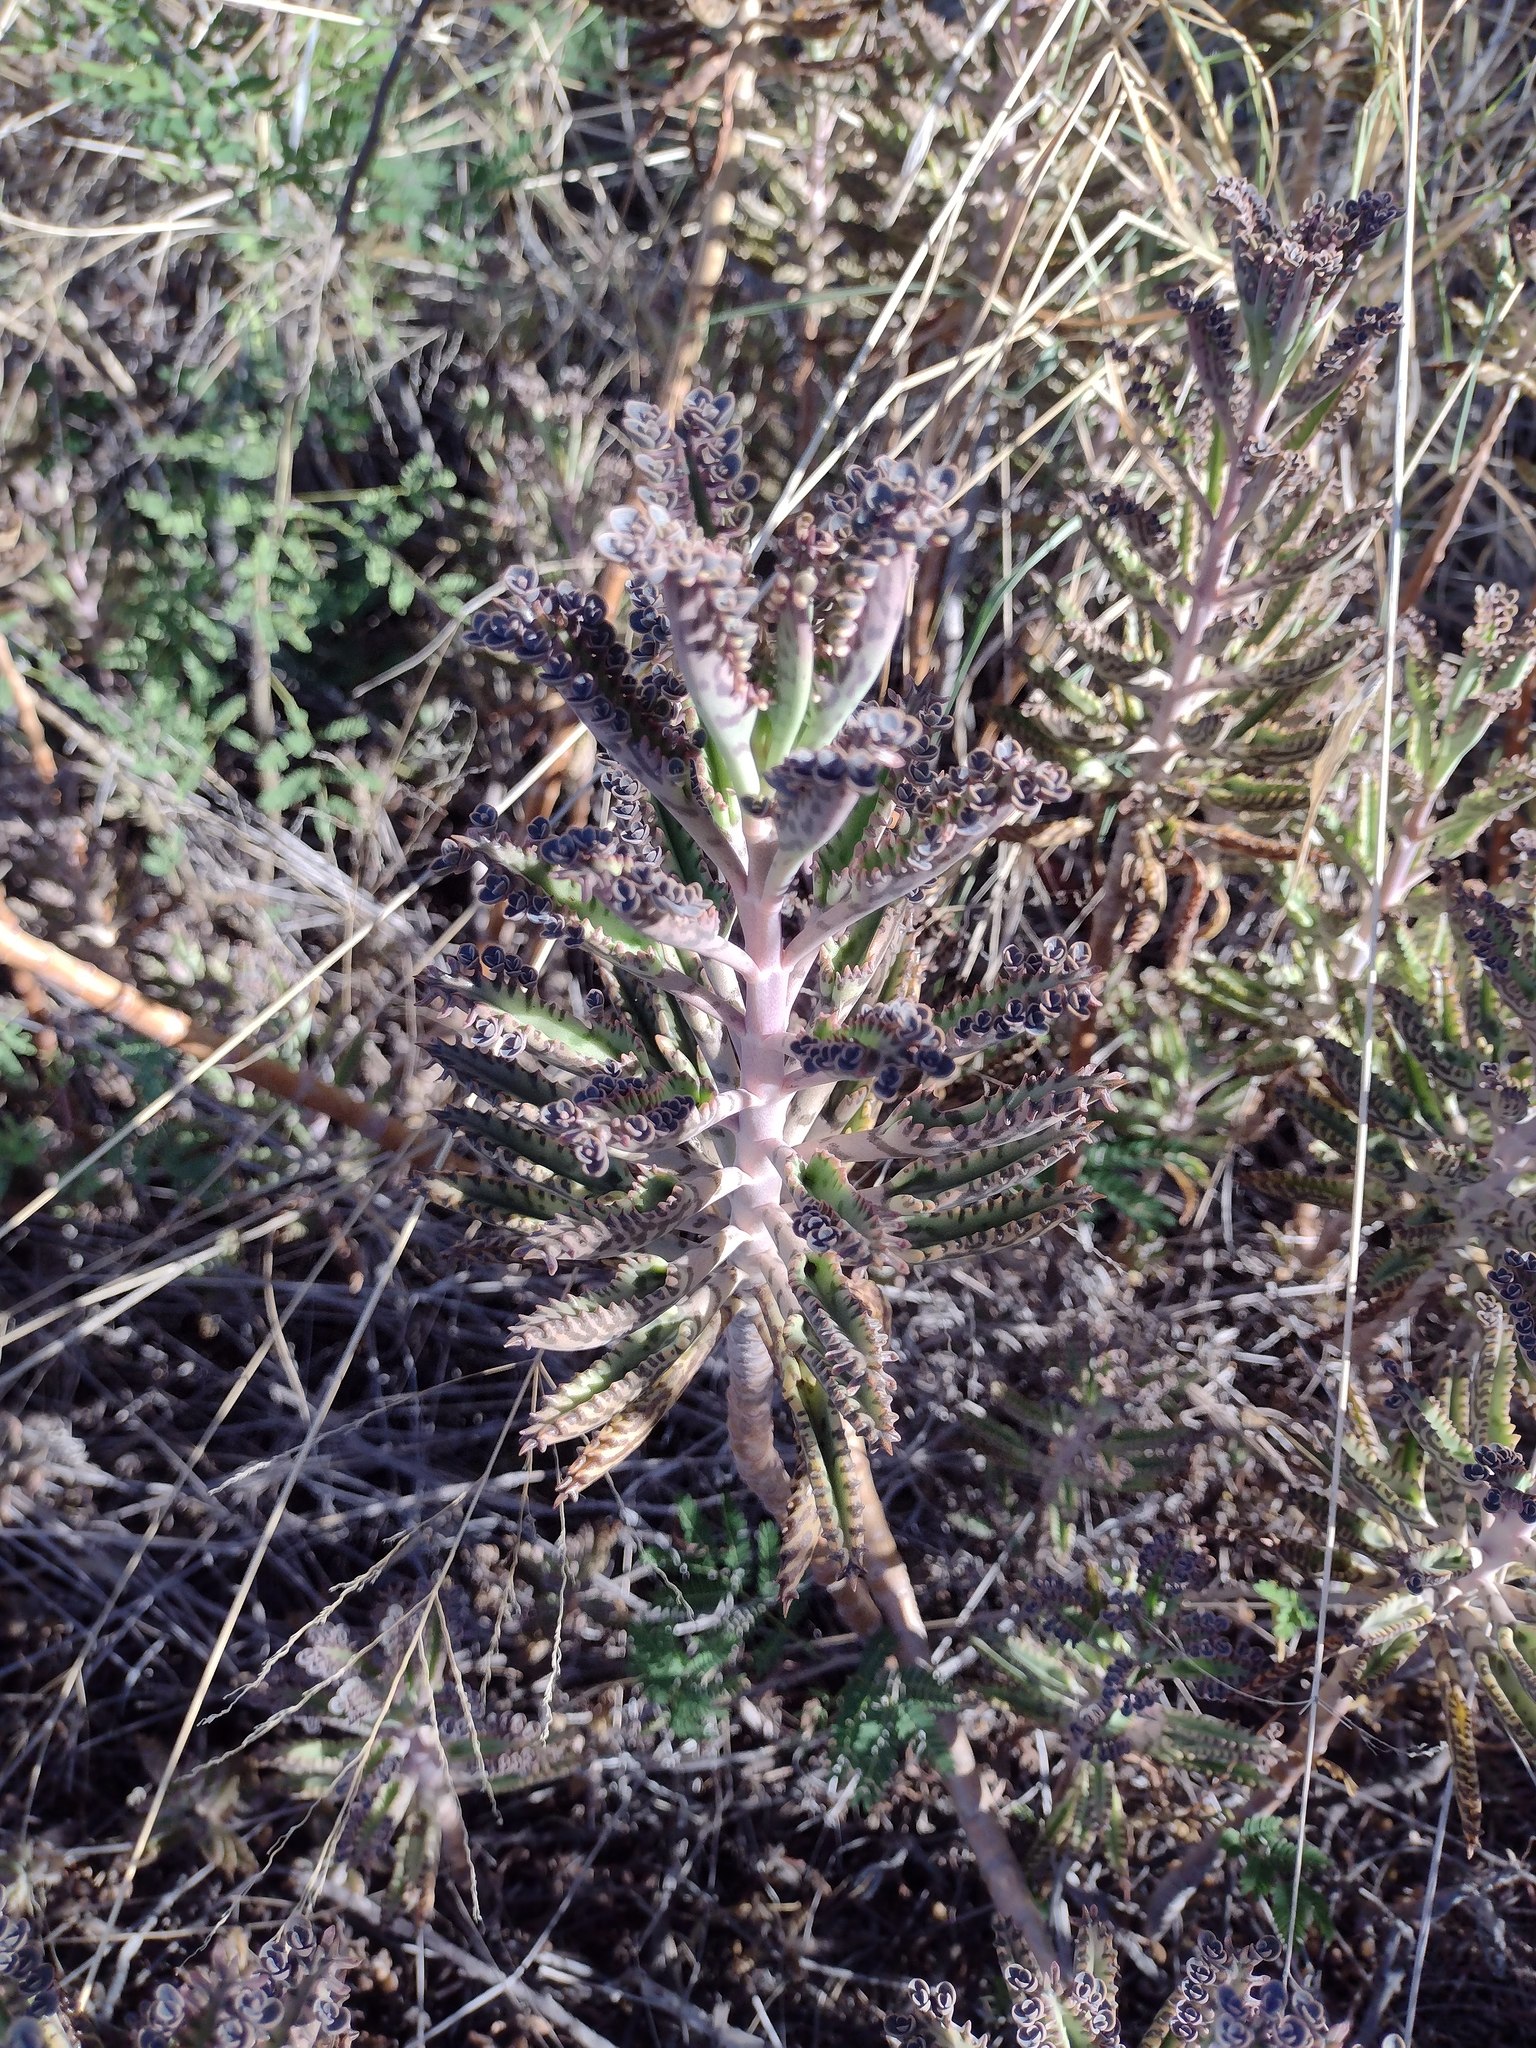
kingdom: Plantae
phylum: Tracheophyta
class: Magnoliopsida
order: Saxifragales
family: Crassulaceae
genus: Kalanchoe
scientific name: Kalanchoe houghtonii
